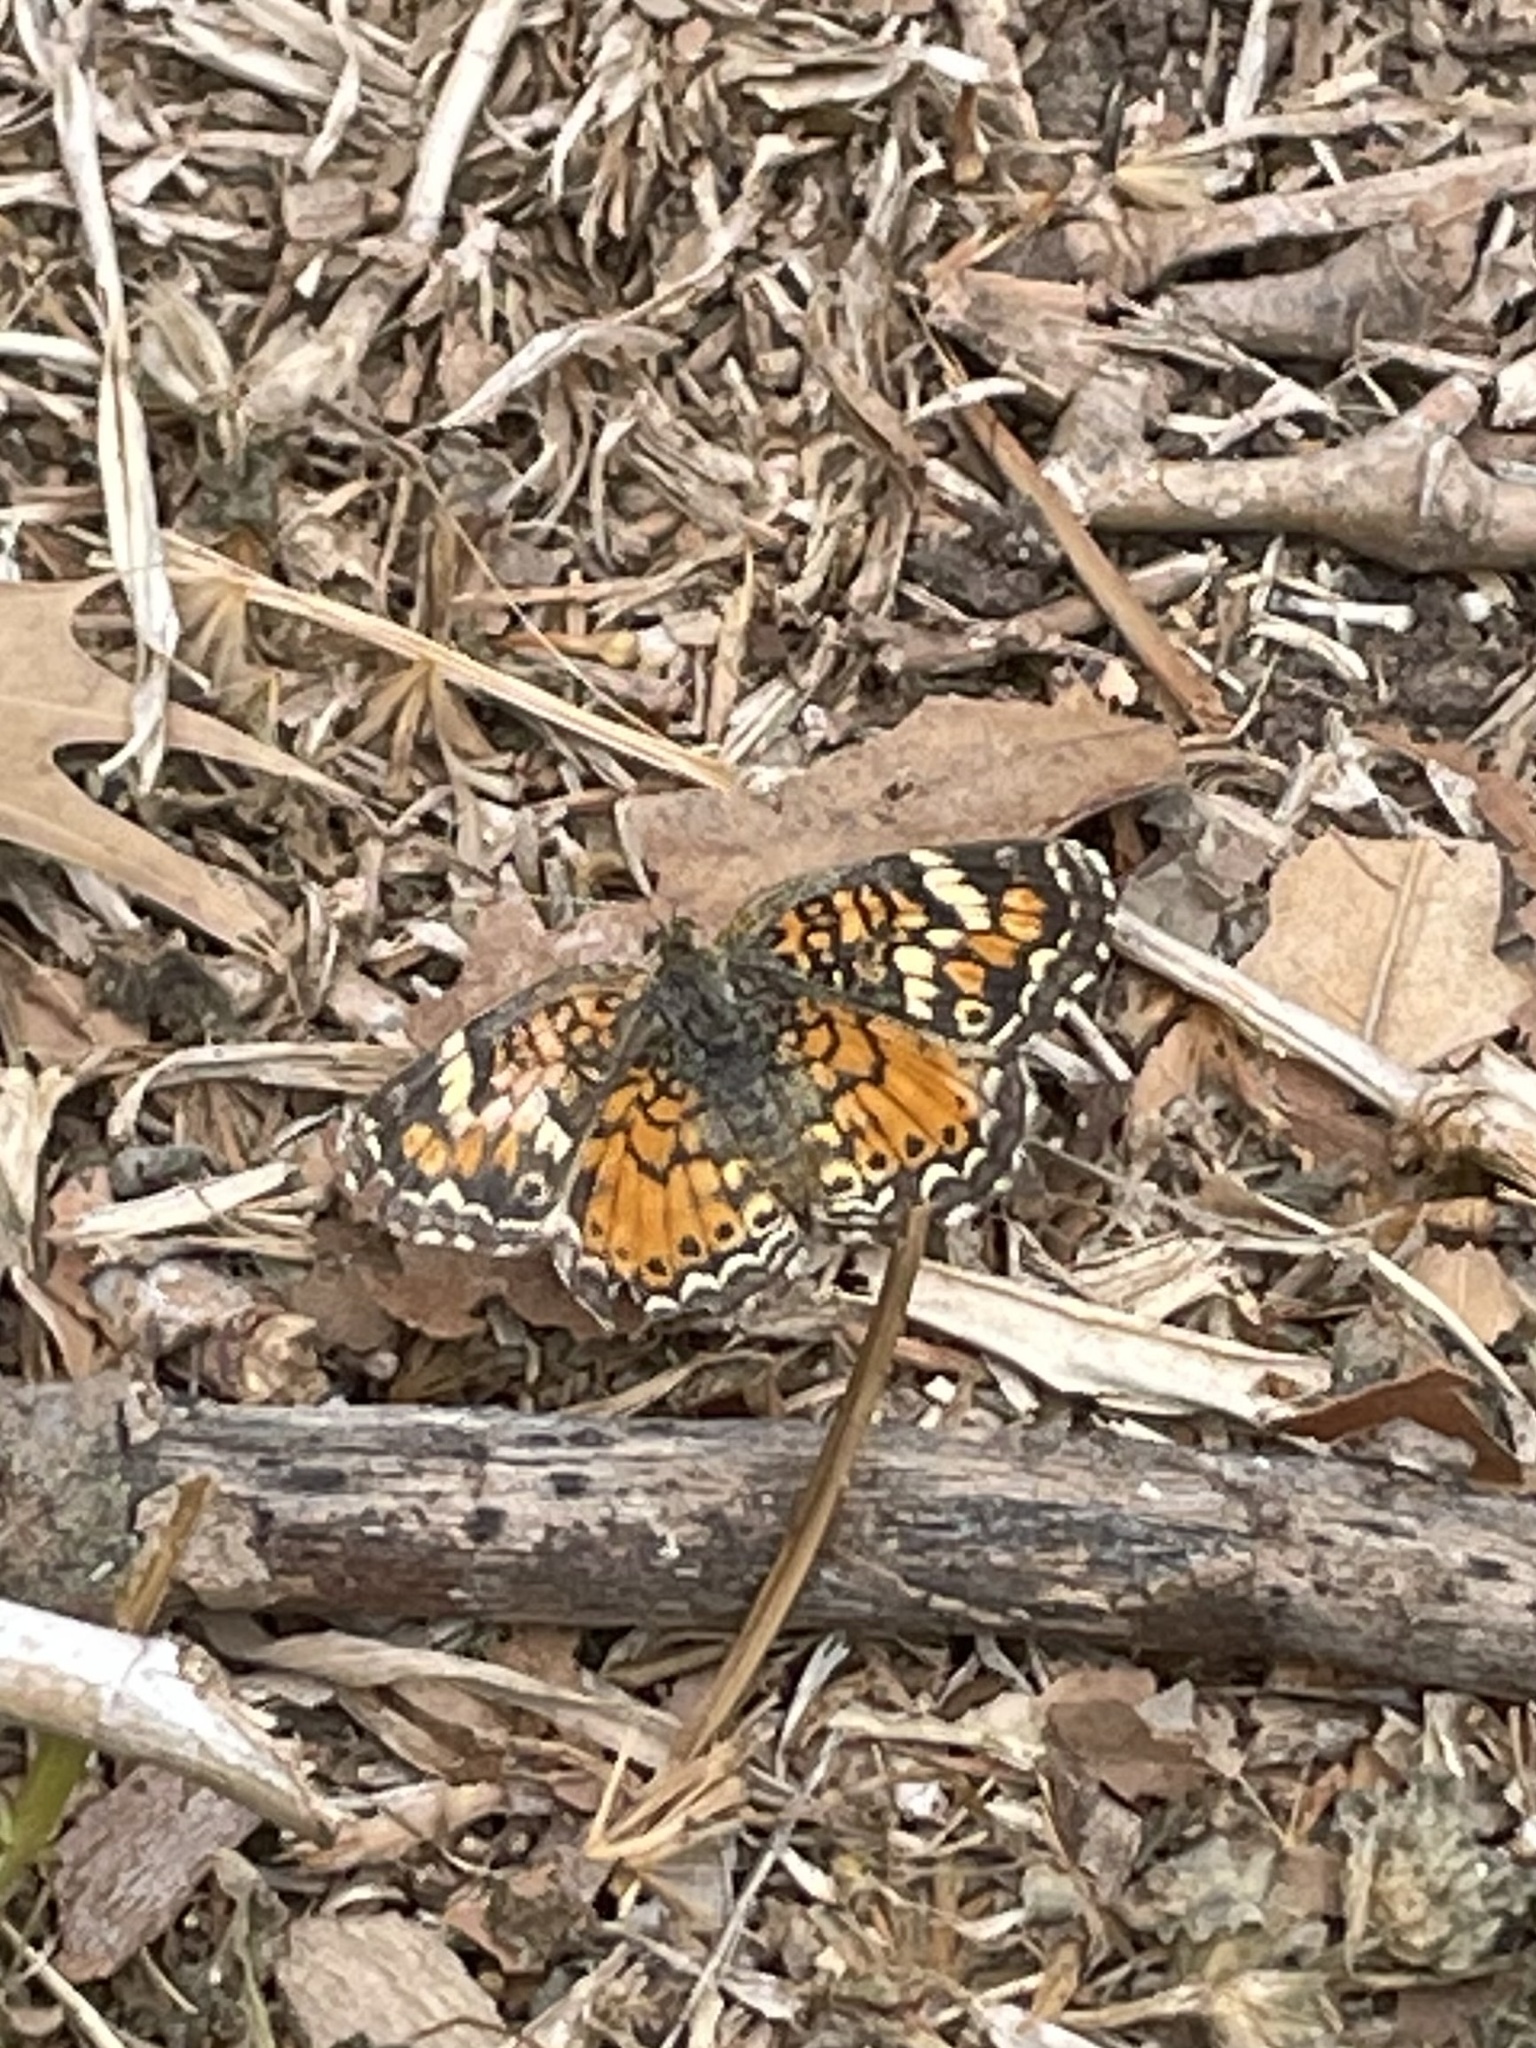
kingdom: Animalia
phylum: Arthropoda
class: Insecta
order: Lepidoptera
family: Nymphalidae
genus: Phyciodes
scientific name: Phyciodes phaon
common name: Phaon crescent
